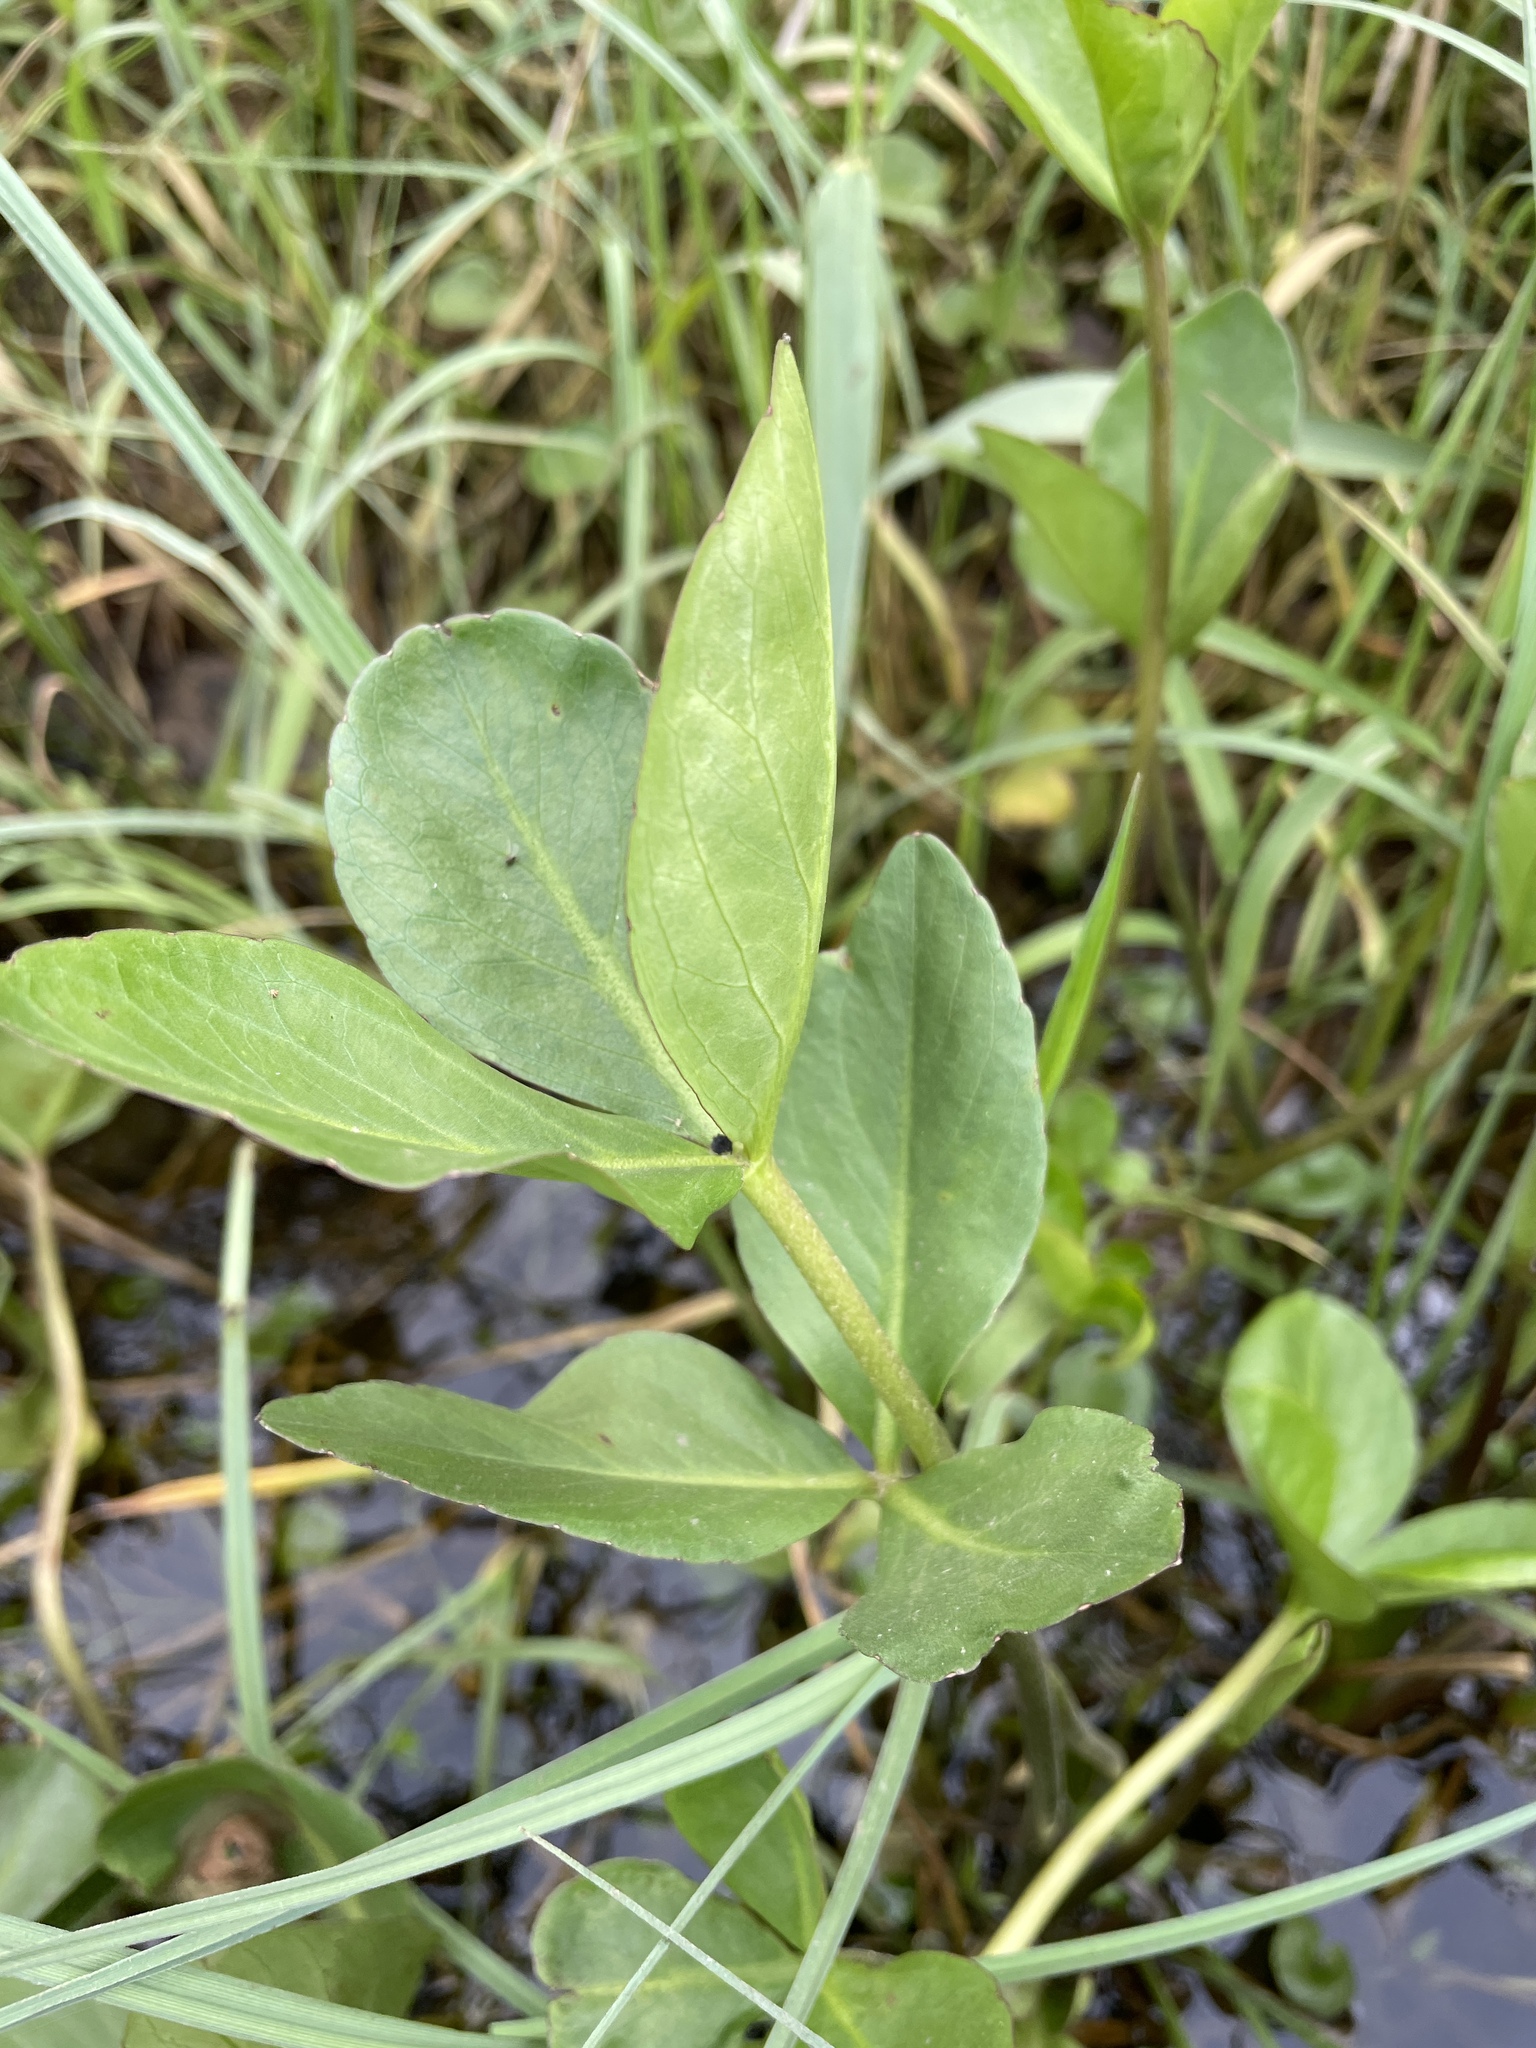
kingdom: Plantae
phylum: Tracheophyta
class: Magnoliopsida
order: Asterales
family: Menyanthaceae
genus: Menyanthes
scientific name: Menyanthes trifoliata
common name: Bogbean
